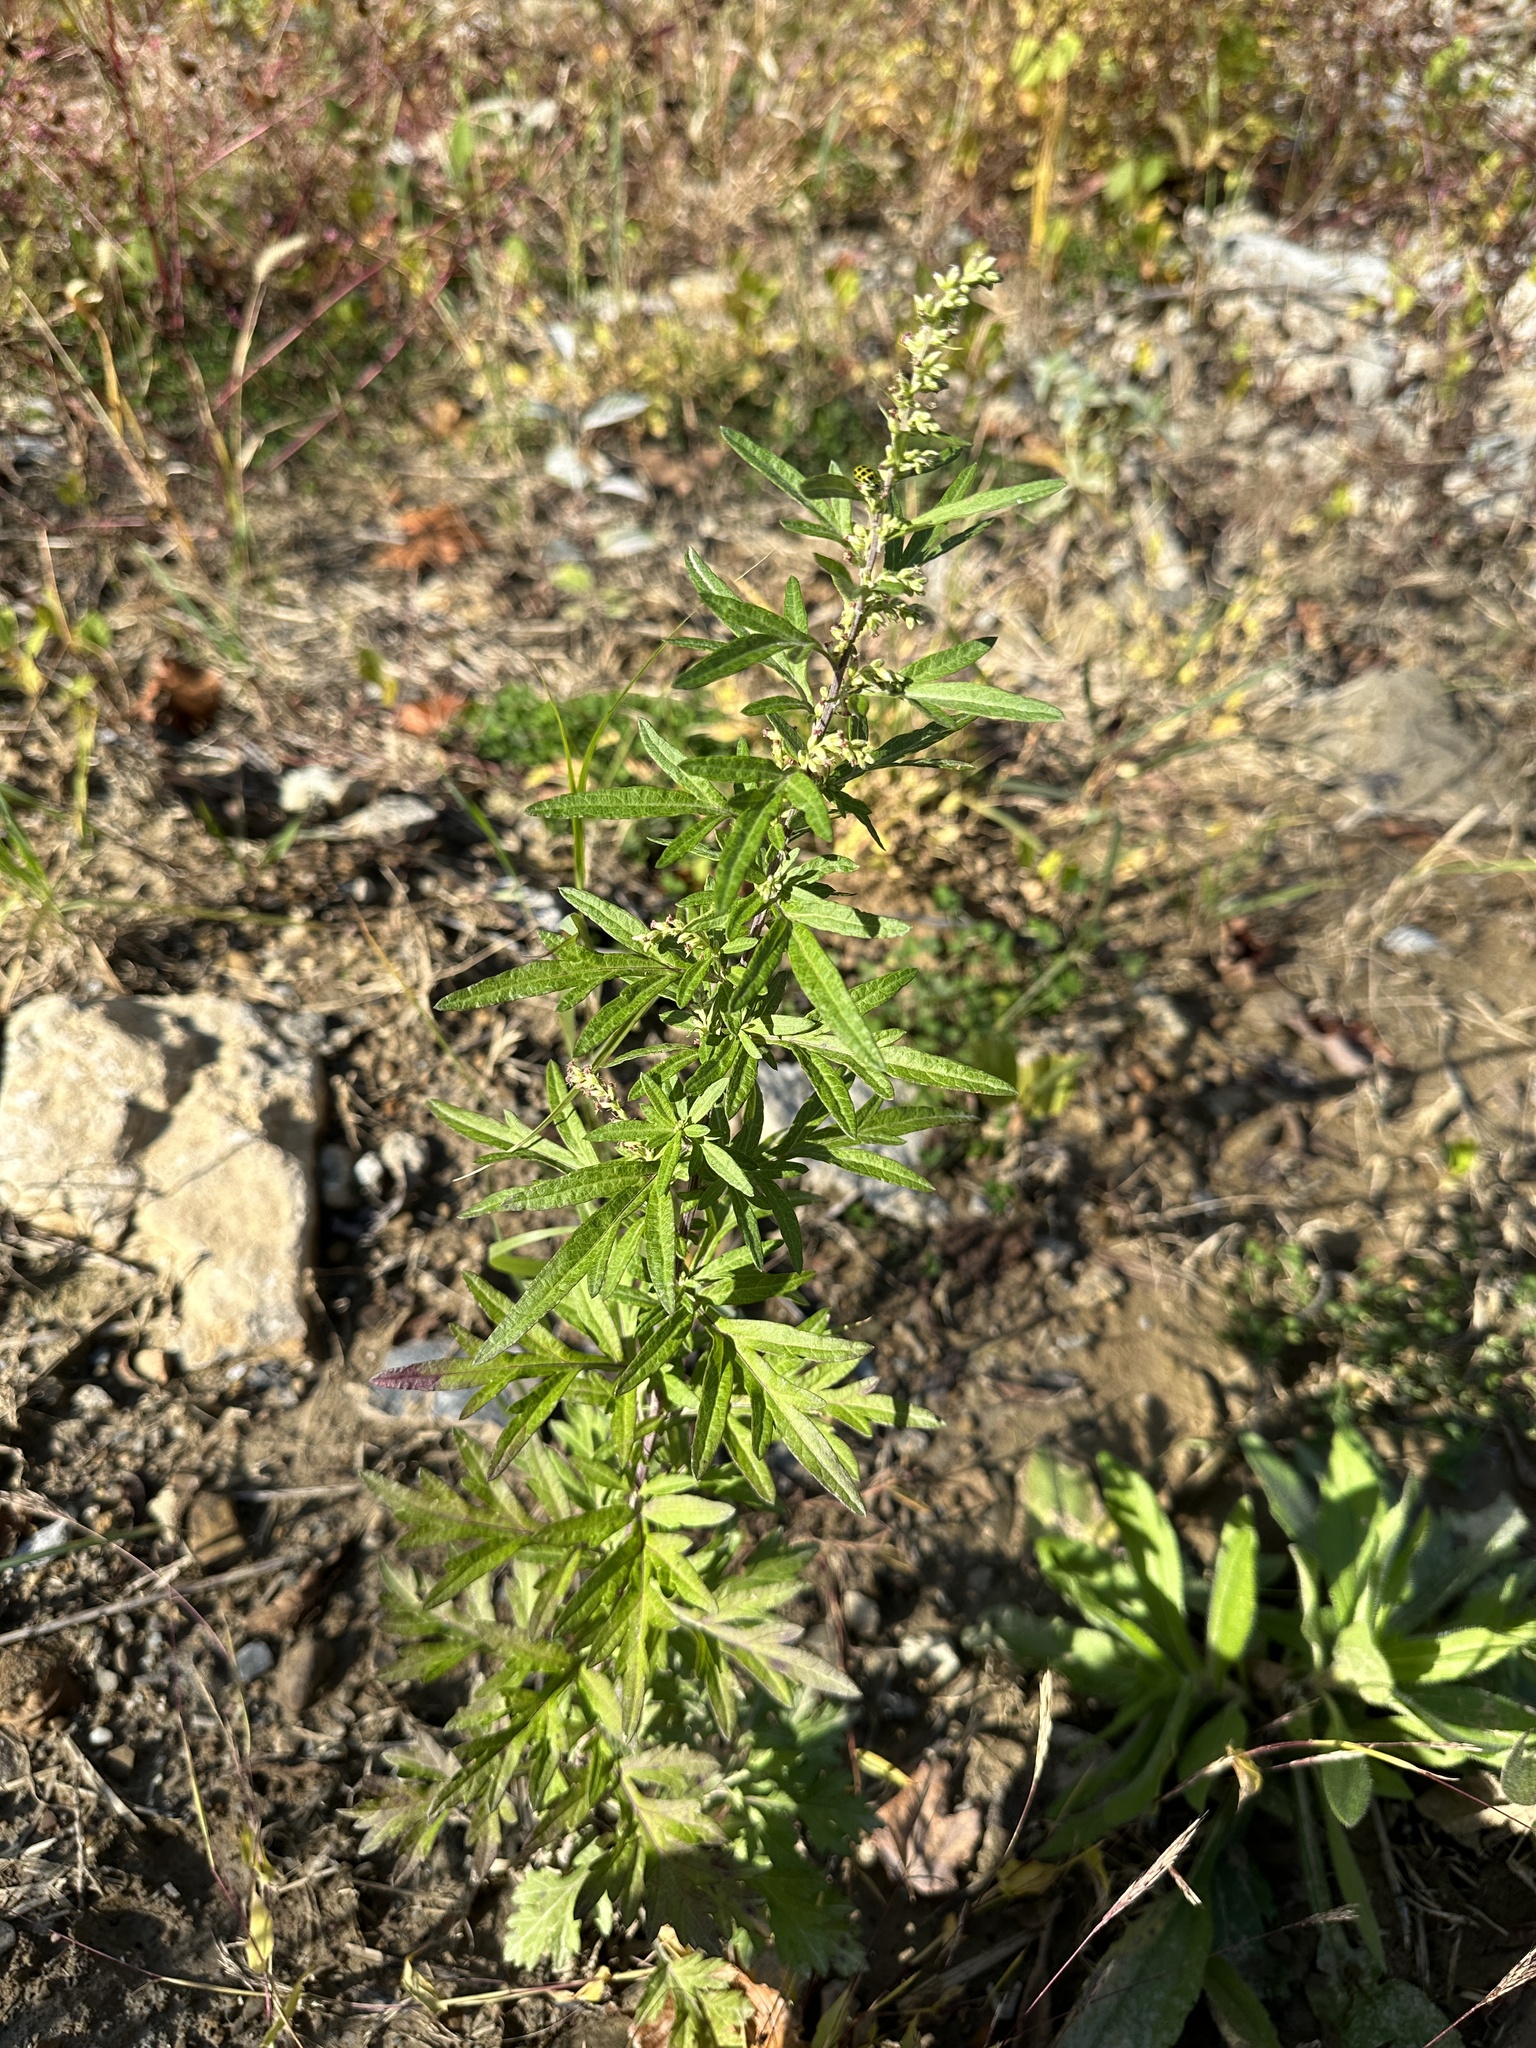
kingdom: Plantae
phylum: Tracheophyta
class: Magnoliopsida
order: Asterales
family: Asteraceae
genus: Artemisia
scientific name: Artemisia vulgaris
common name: Mugwort
